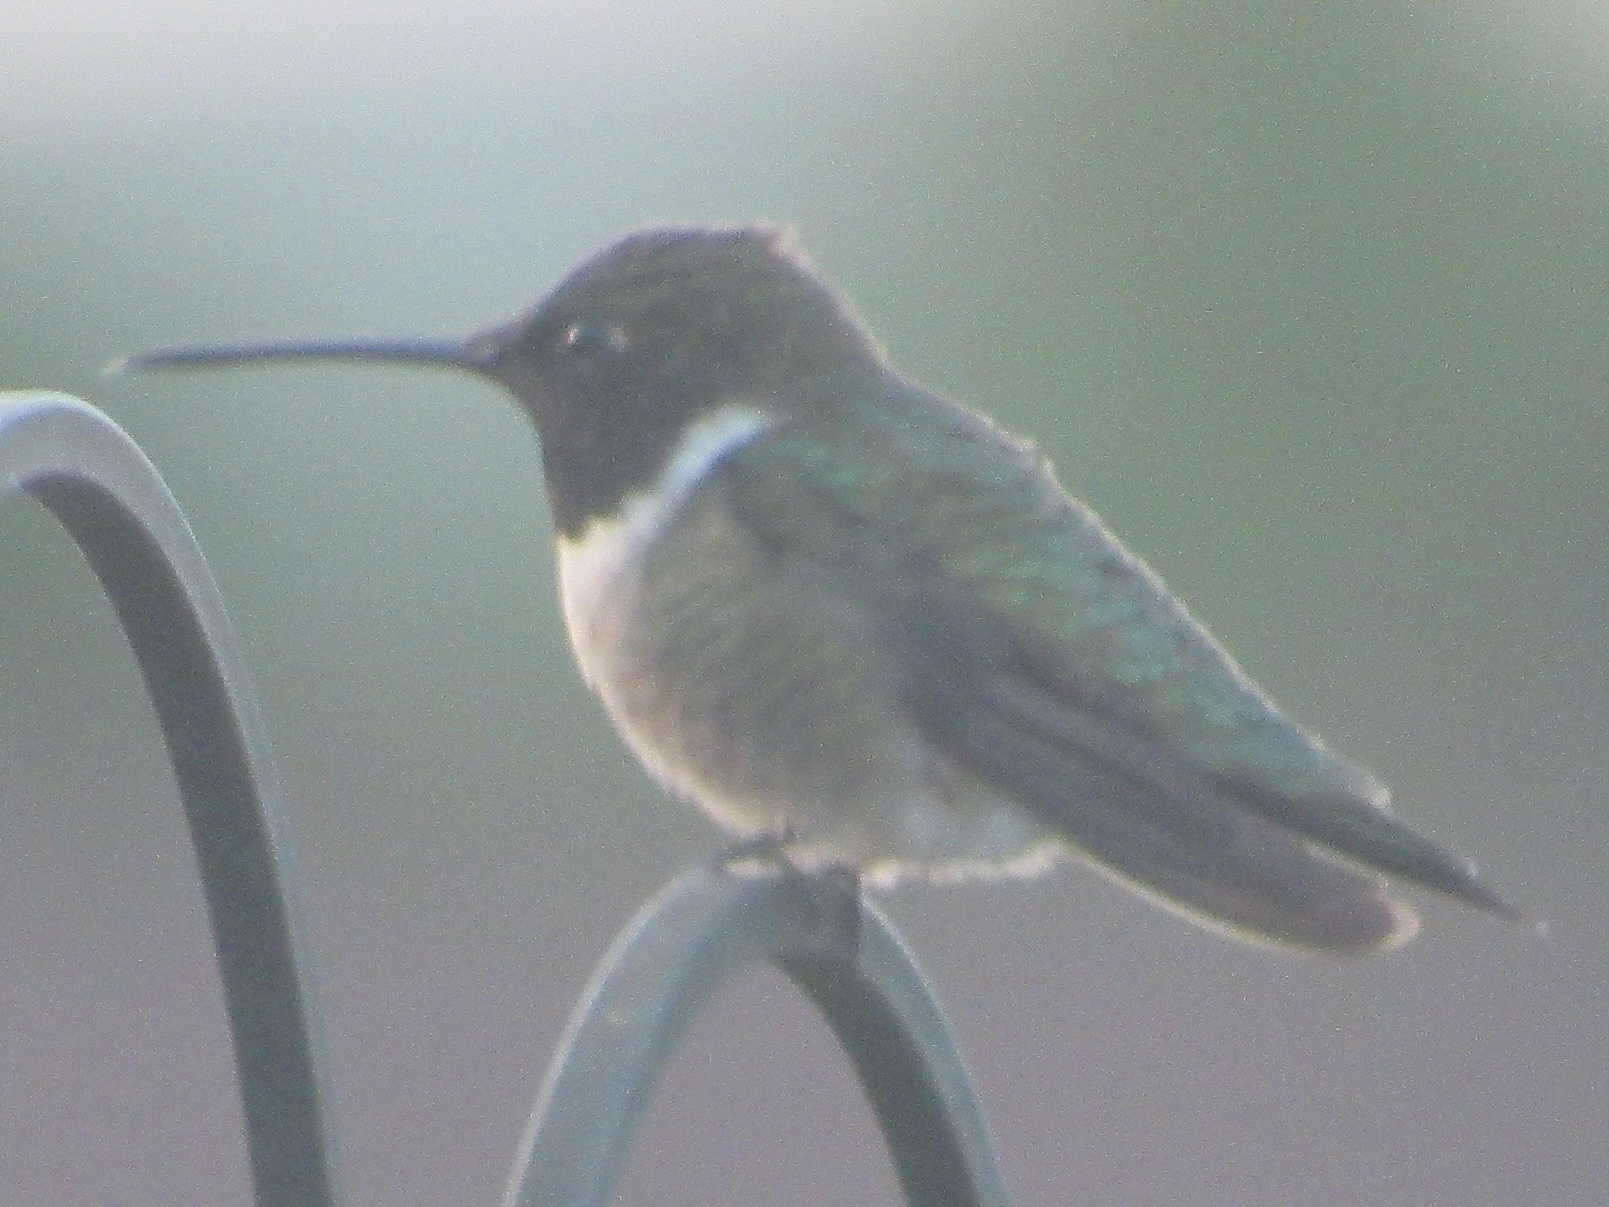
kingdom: Animalia
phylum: Chordata
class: Aves
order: Apodiformes
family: Trochilidae
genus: Archilochus
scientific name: Archilochus colubris
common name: Ruby-throated hummingbird
